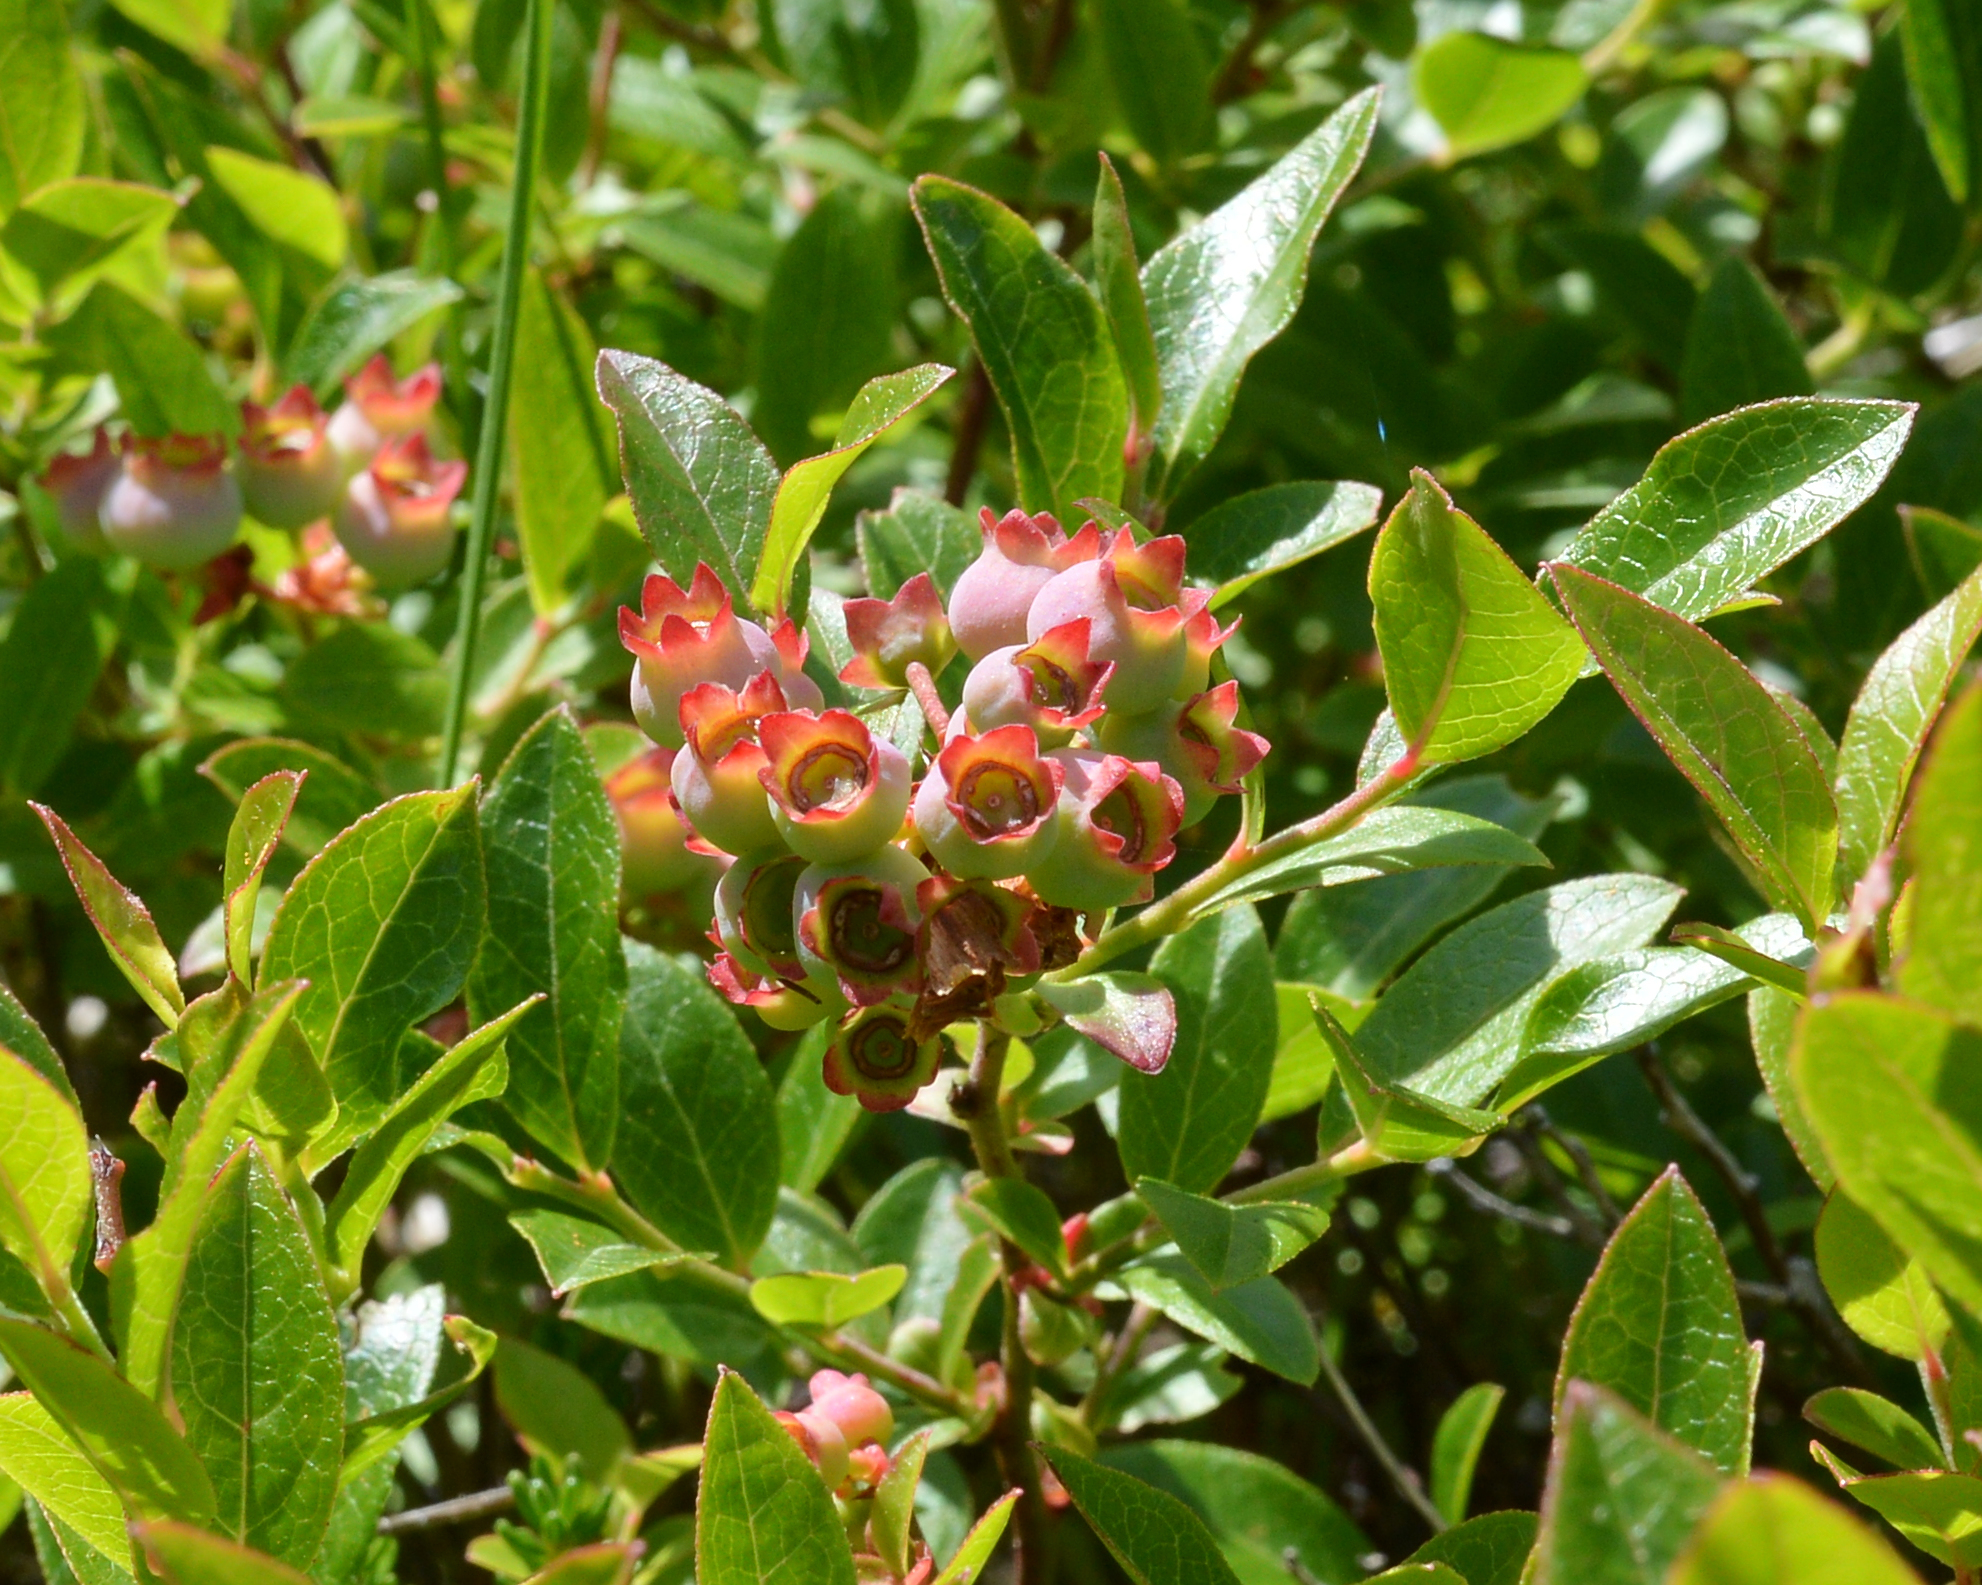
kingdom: Plantae
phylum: Tracheophyta
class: Magnoliopsida
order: Ericales
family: Ericaceae
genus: Vaccinium
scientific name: Vaccinium angustifolium
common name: Early lowbush blueberry
